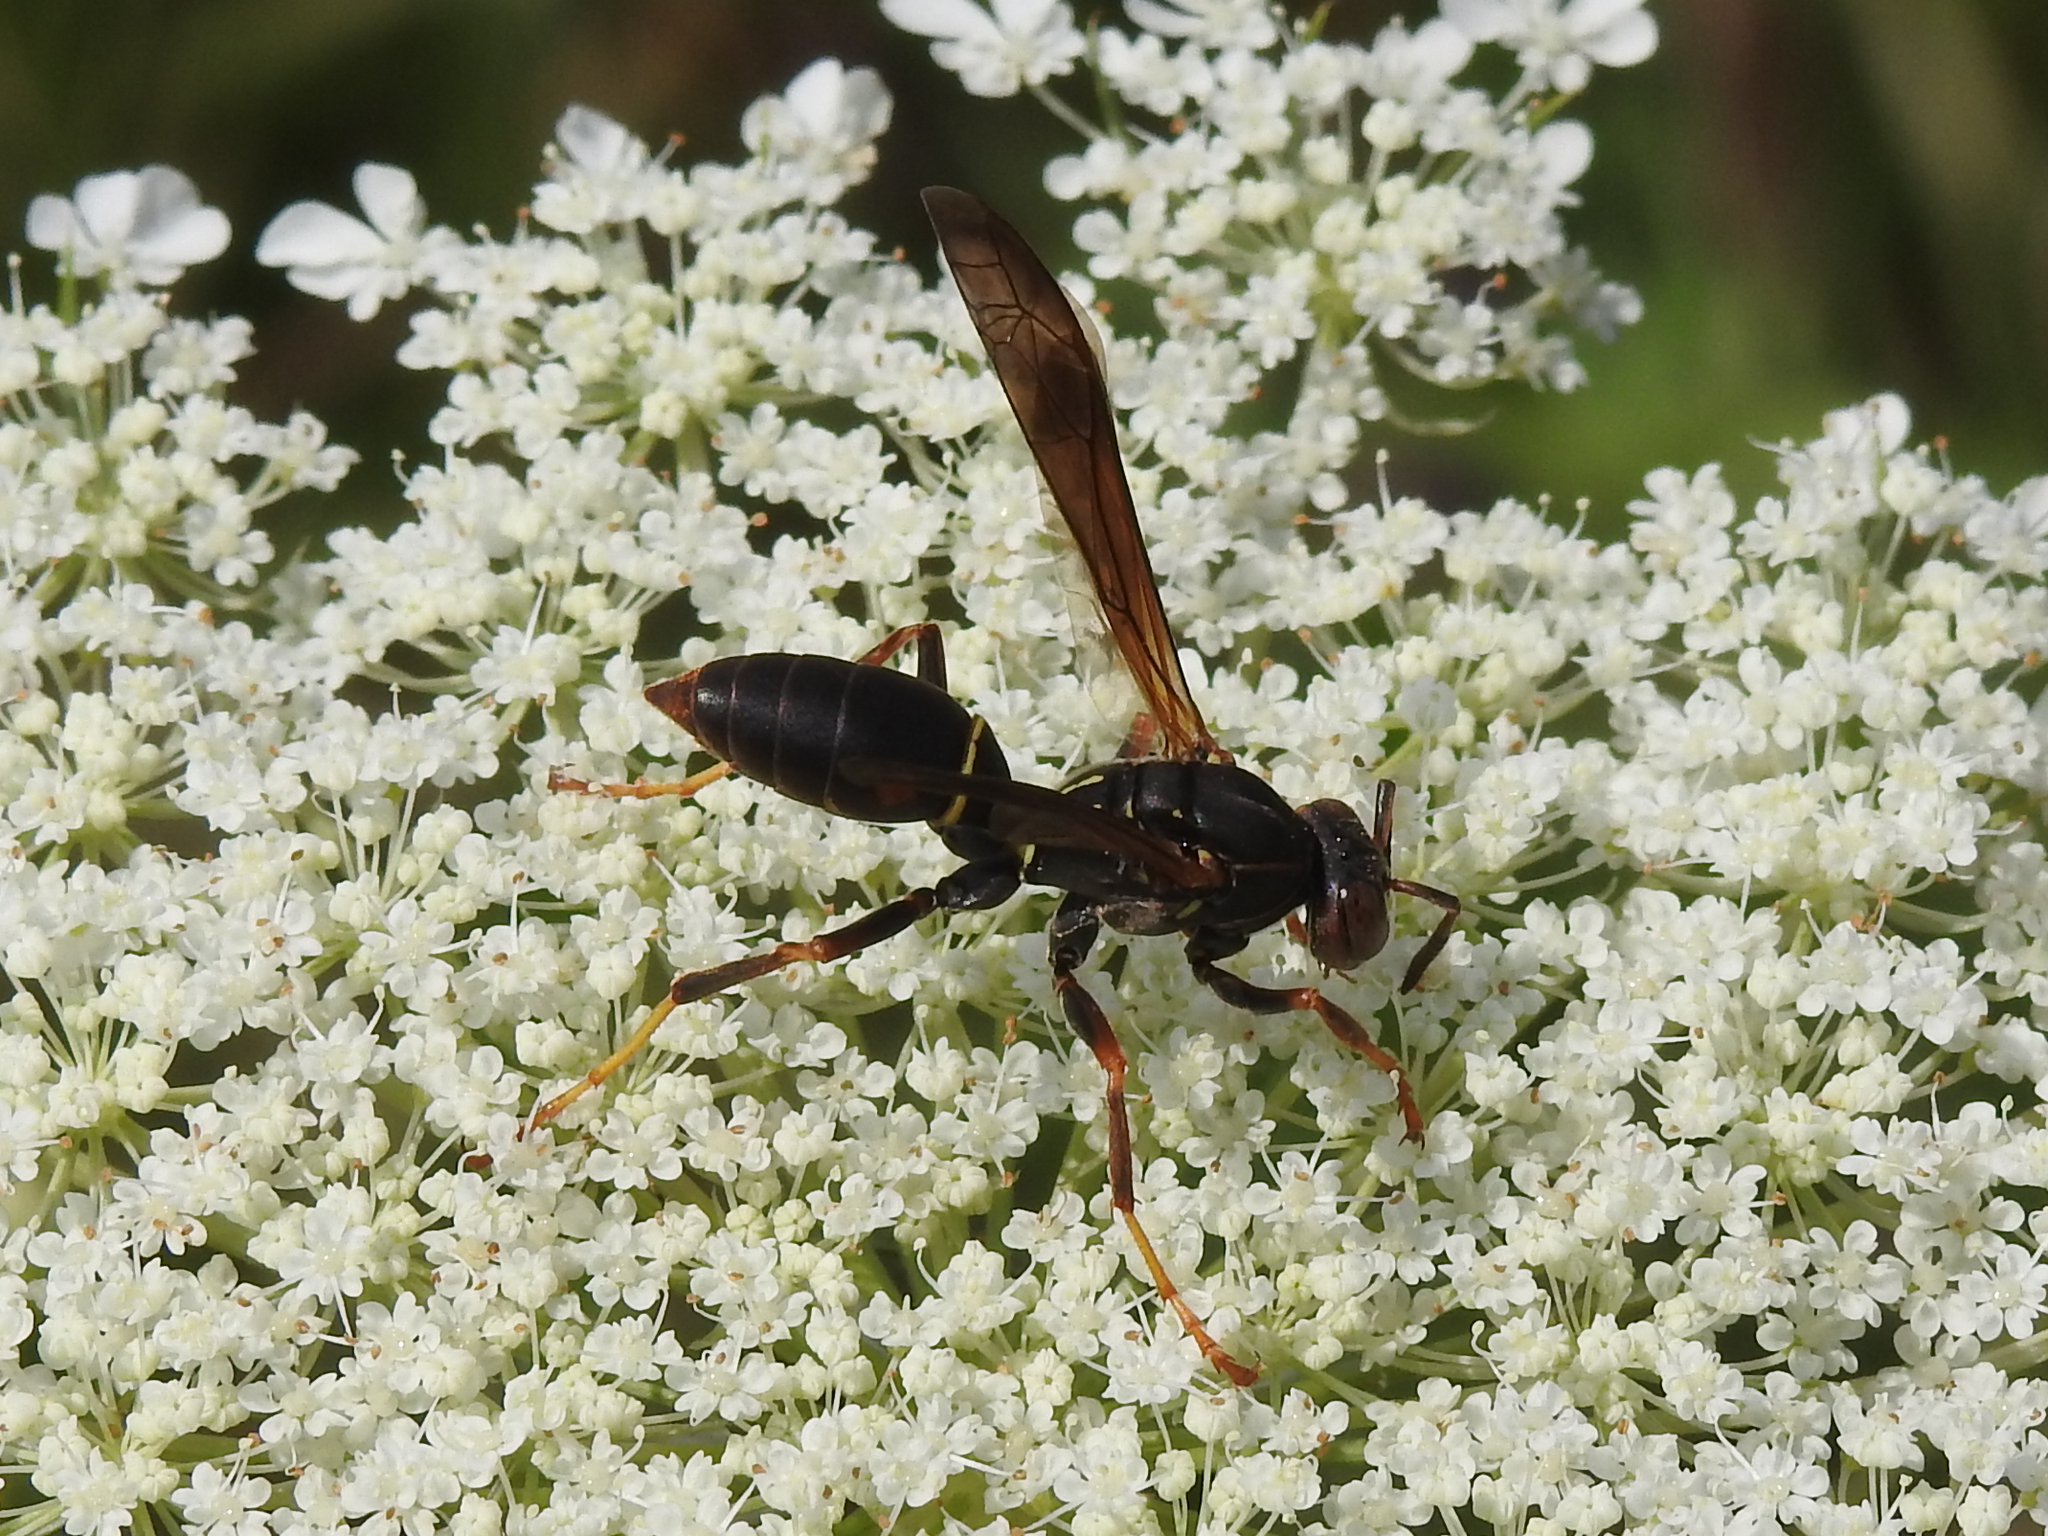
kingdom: Animalia
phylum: Arthropoda
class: Insecta
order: Hymenoptera
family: Eumenidae
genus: Polistes
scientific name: Polistes fuscatus
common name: Dark paper wasp
